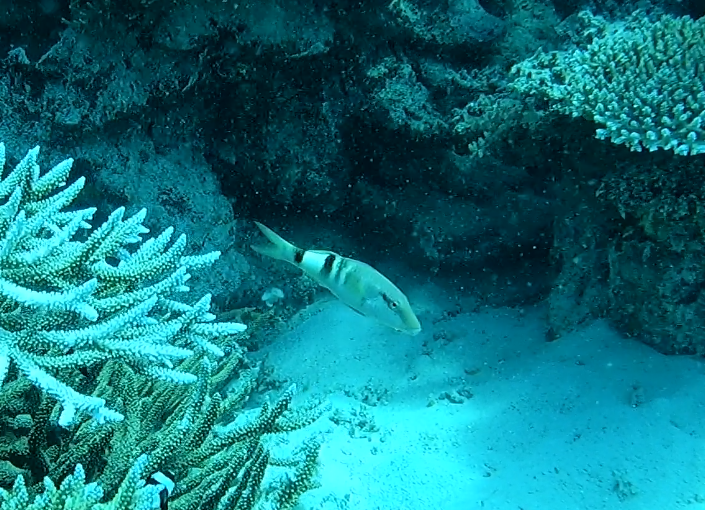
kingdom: Animalia
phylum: Chordata
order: Perciformes
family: Mullidae
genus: Parupeneus
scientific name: Parupeneus multifasciatus
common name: Manybar goatfish
